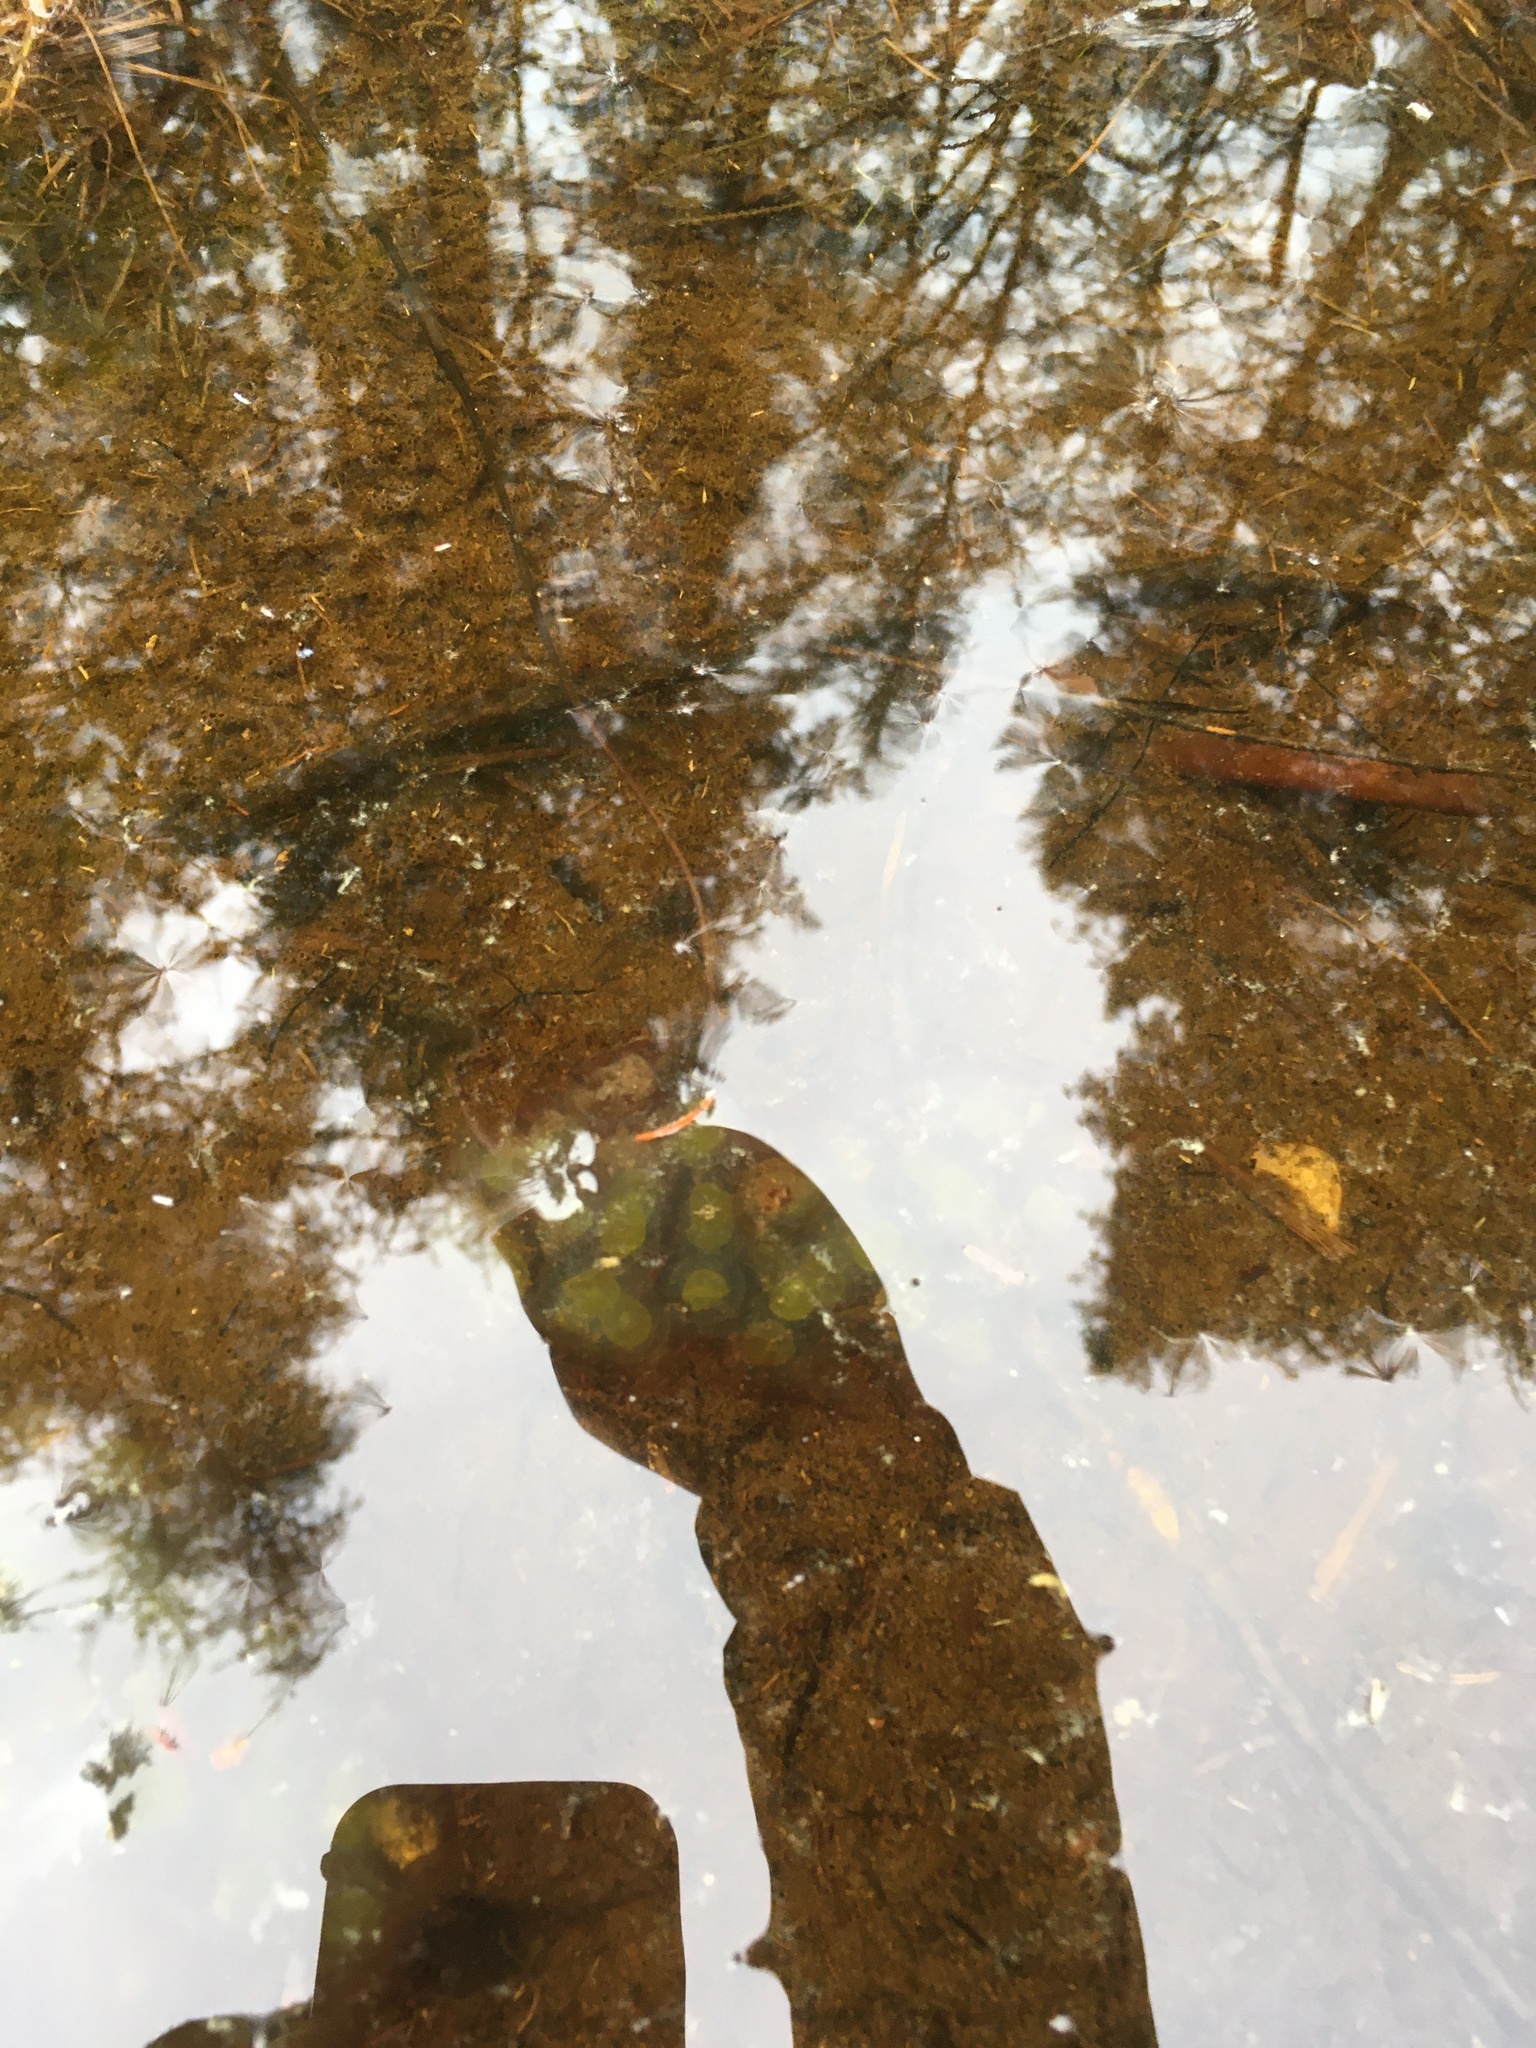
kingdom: Animalia
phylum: Chordata
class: Amphibia
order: Caudata
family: Ambystomatidae
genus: Ambystoma
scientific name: Ambystoma maculatum
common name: Spotted salamander
